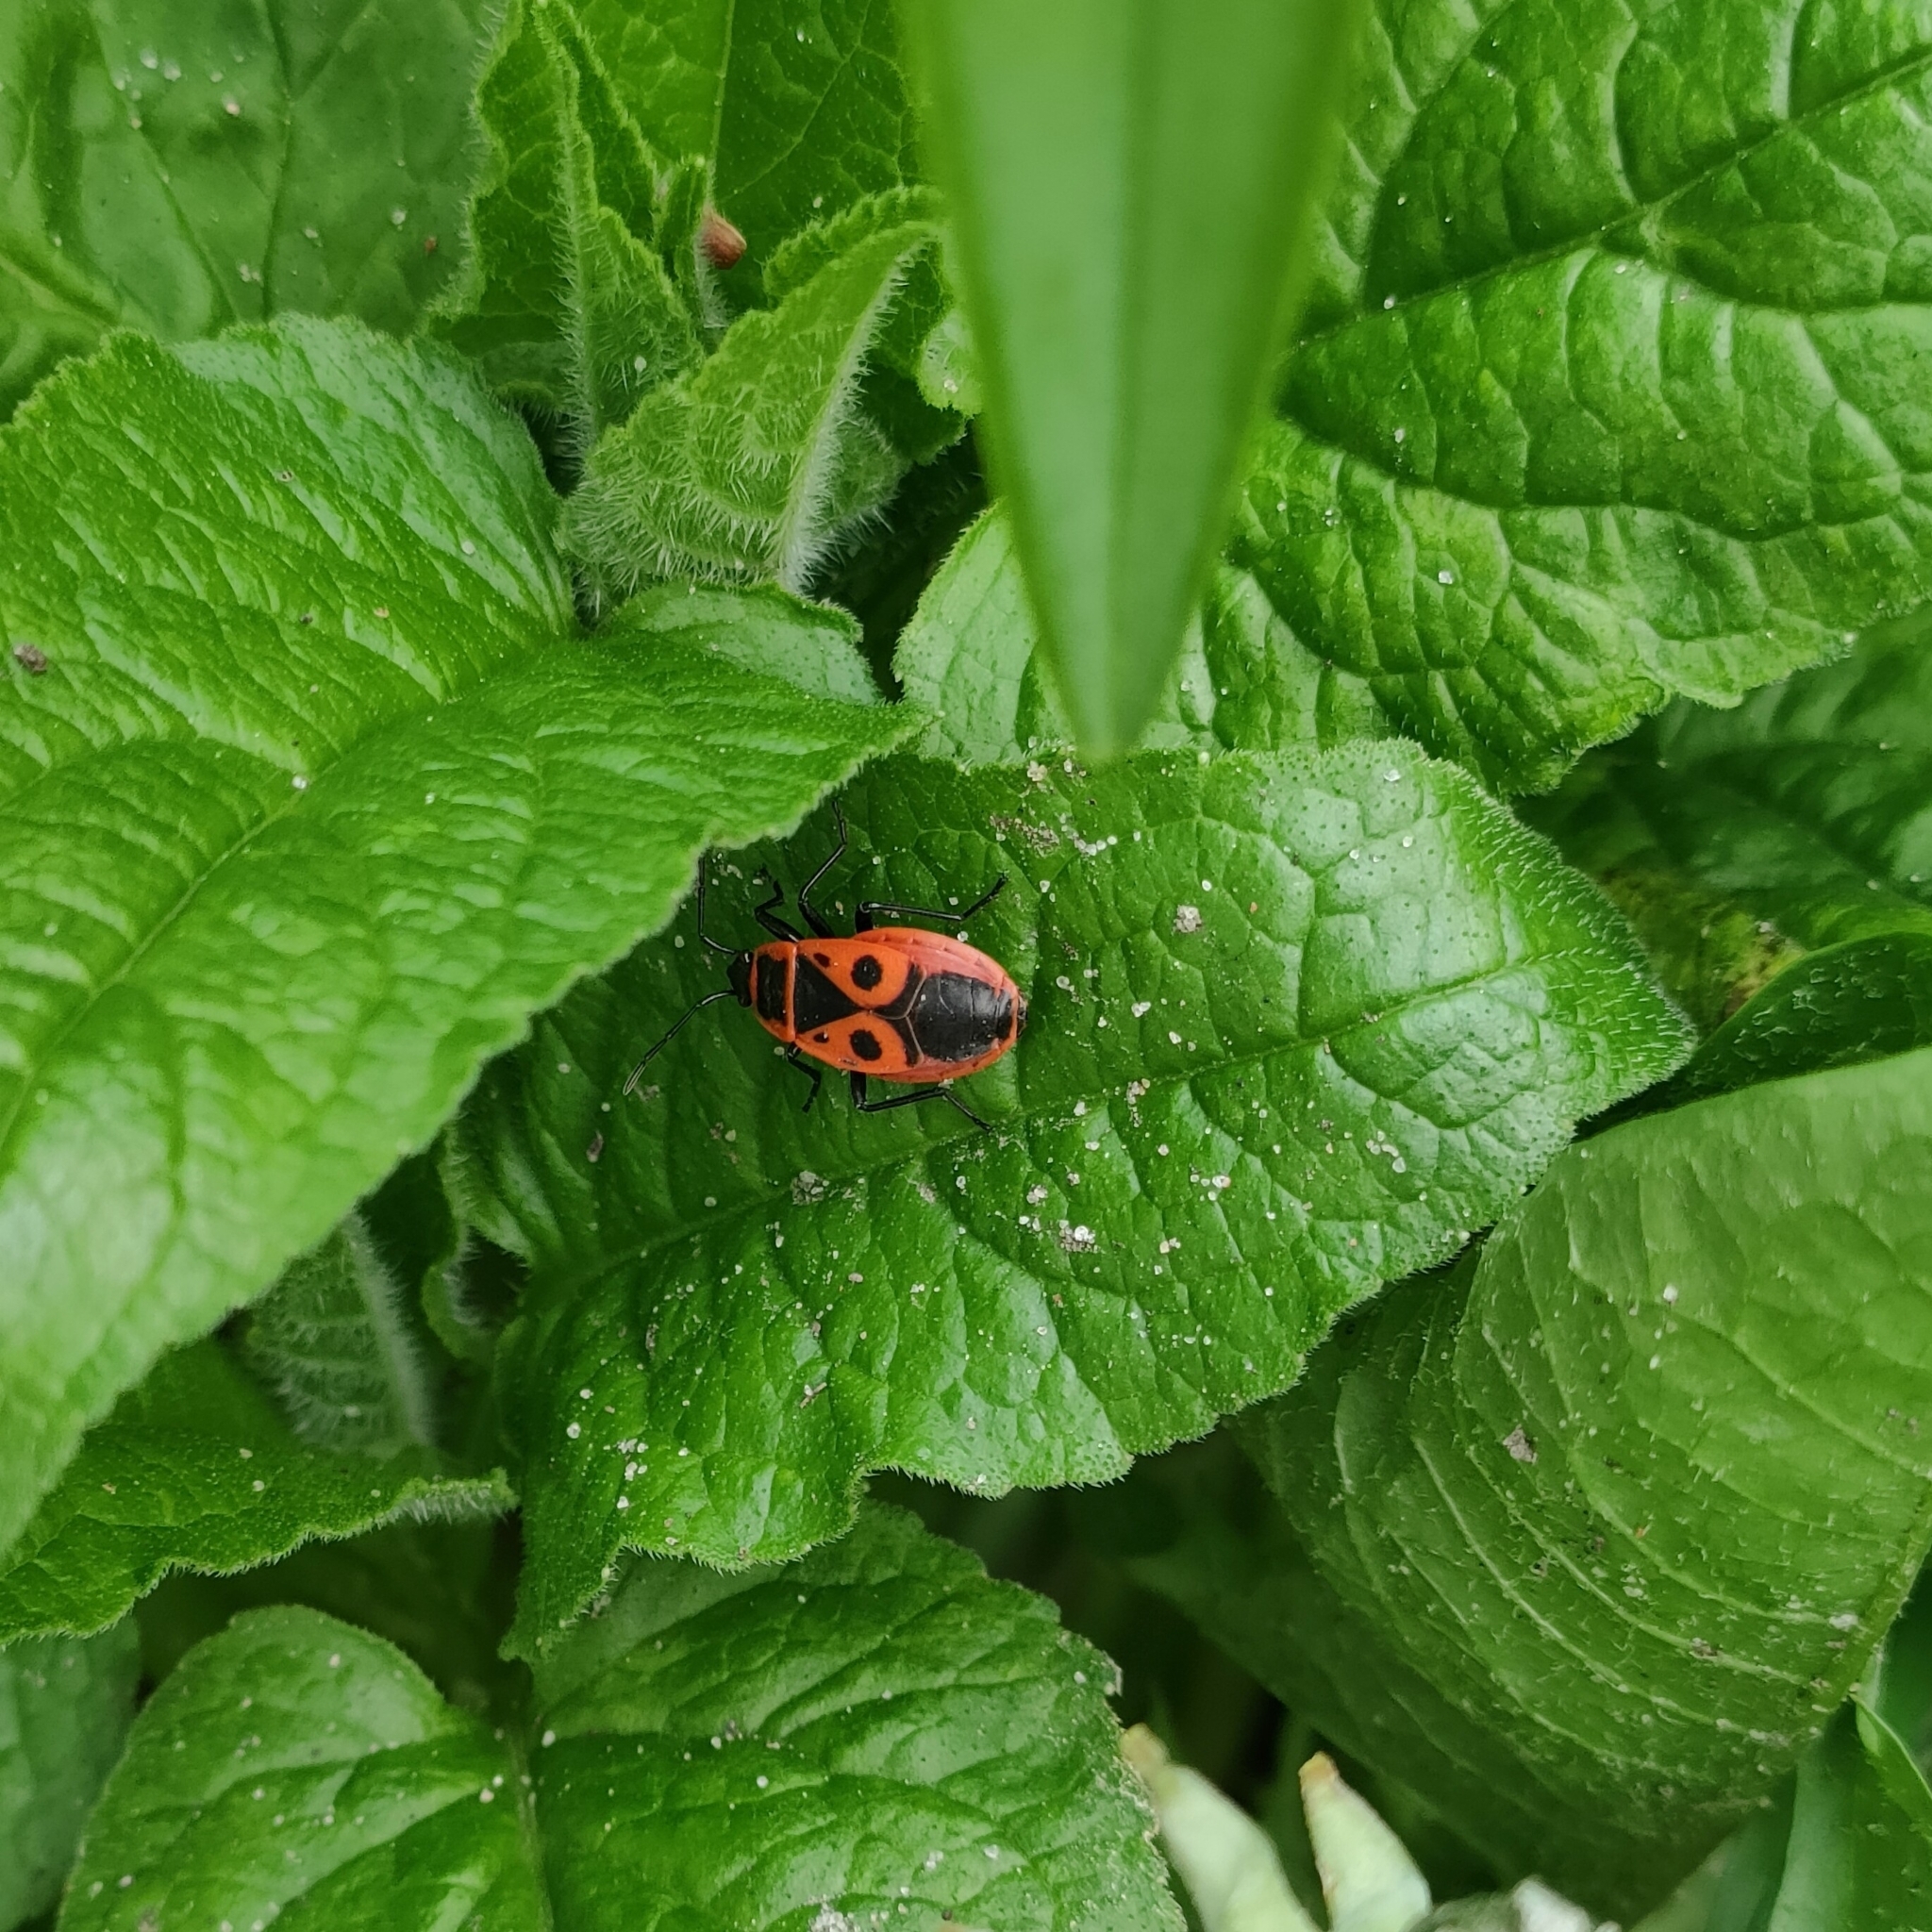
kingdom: Animalia
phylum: Arthropoda
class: Insecta
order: Hemiptera
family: Pyrrhocoridae
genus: Pyrrhocoris
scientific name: Pyrrhocoris apterus
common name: Firebug
